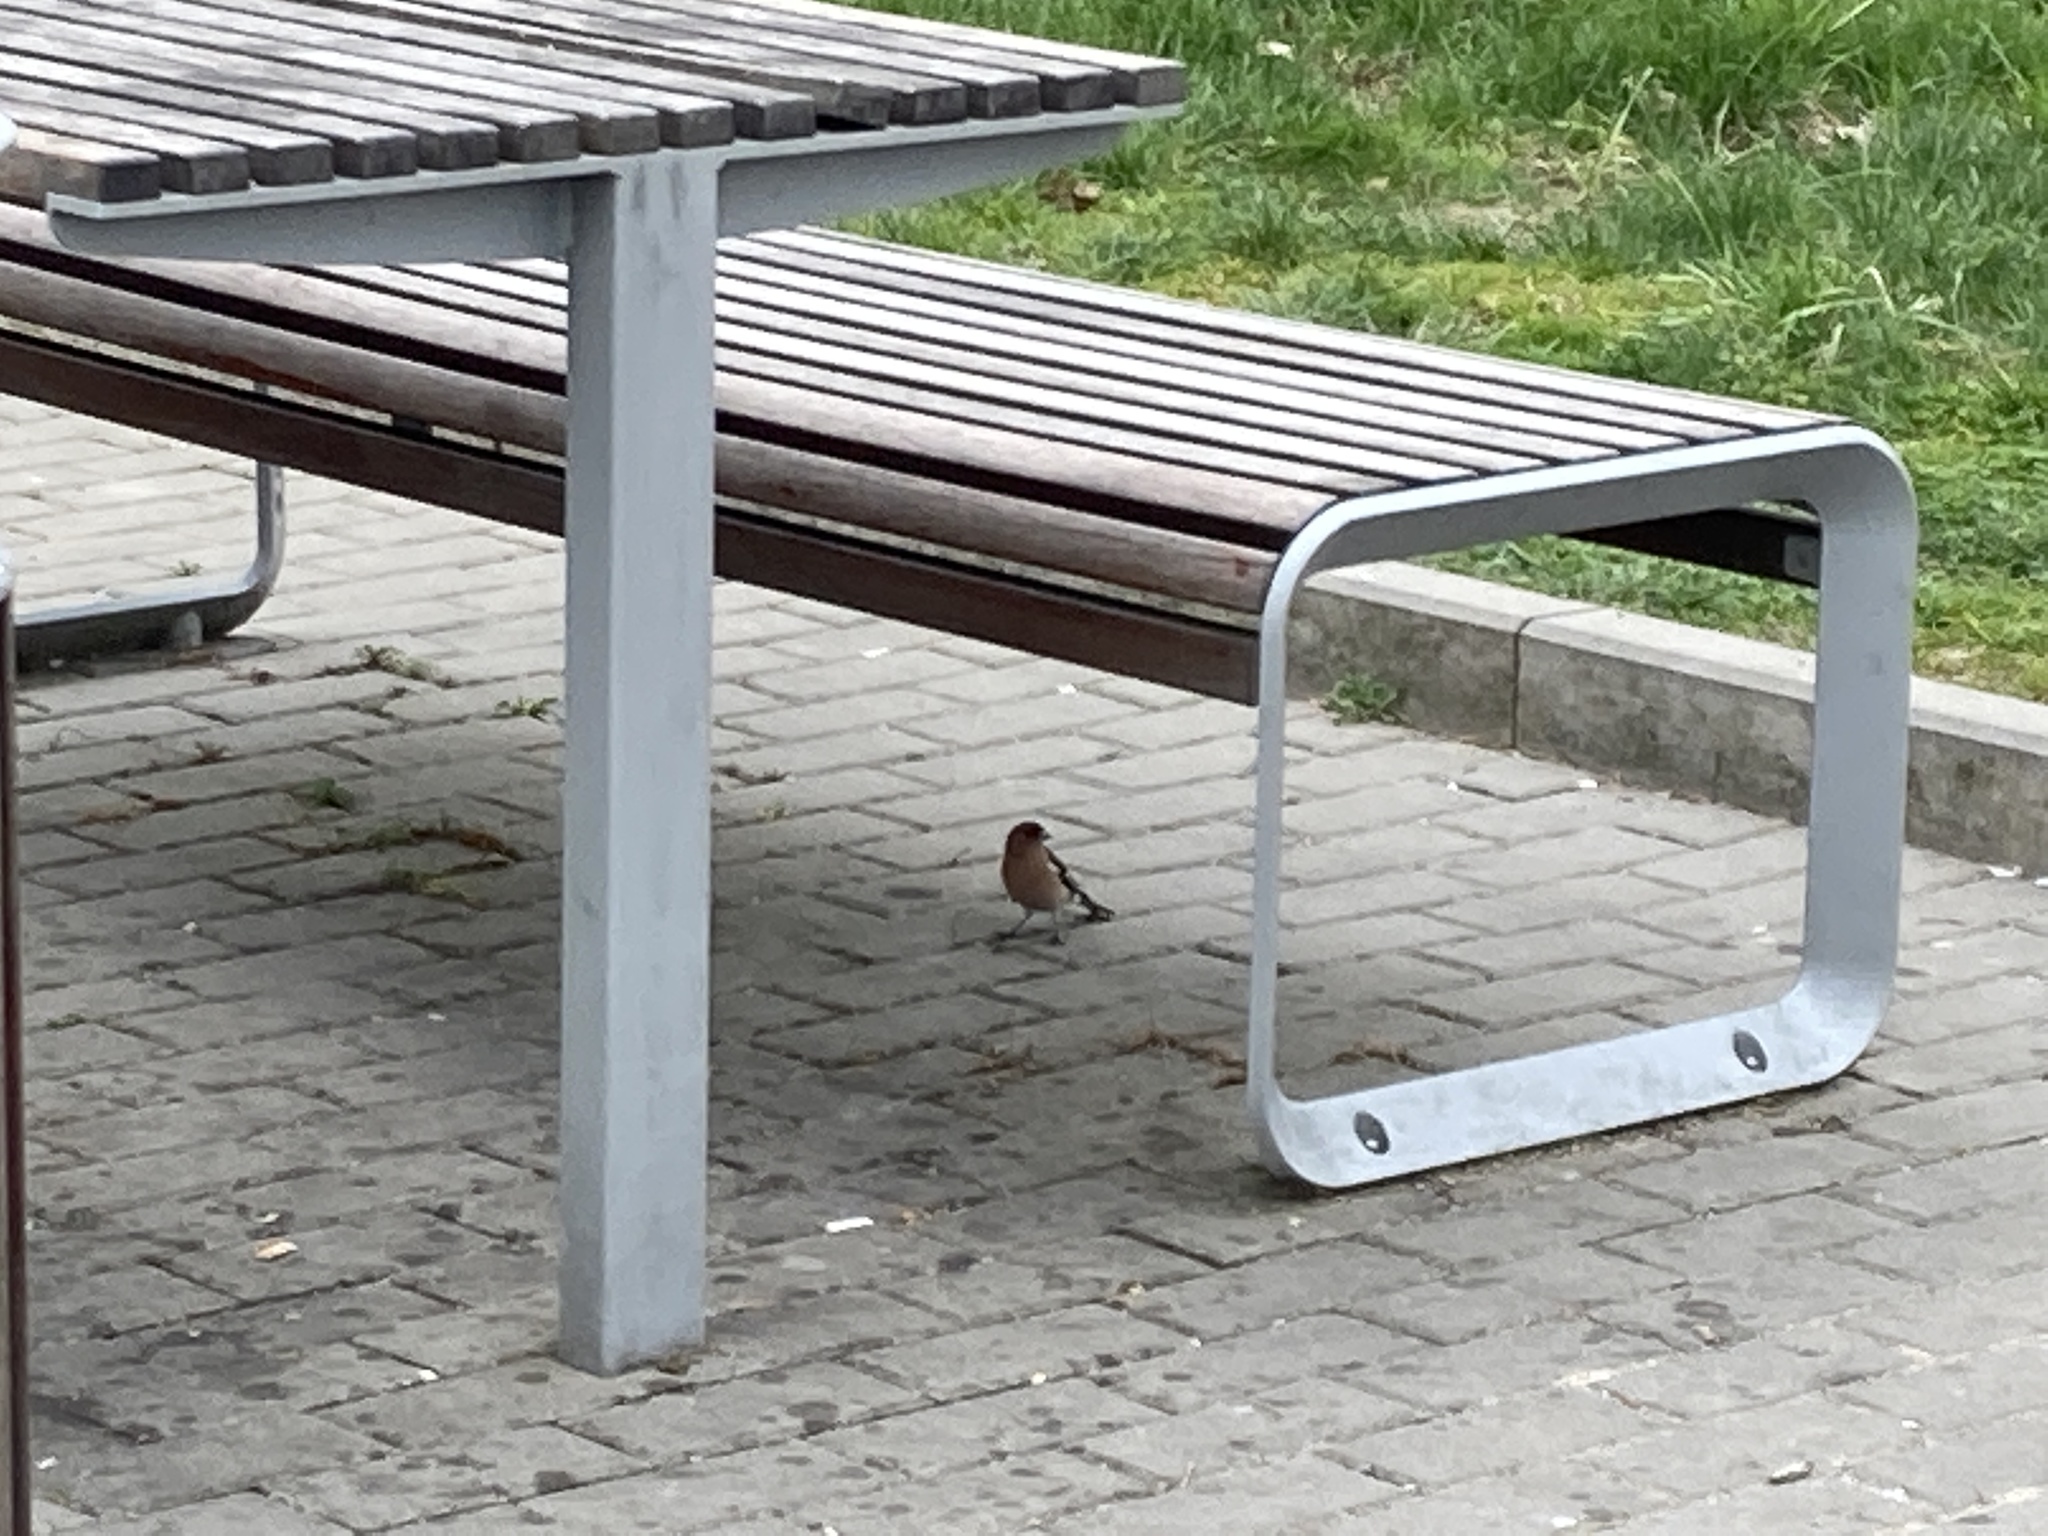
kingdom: Animalia
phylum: Chordata
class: Aves
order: Passeriformes
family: Fringillidae
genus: Fringilla
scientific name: Fringilla coelebs
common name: Common chaffinch
